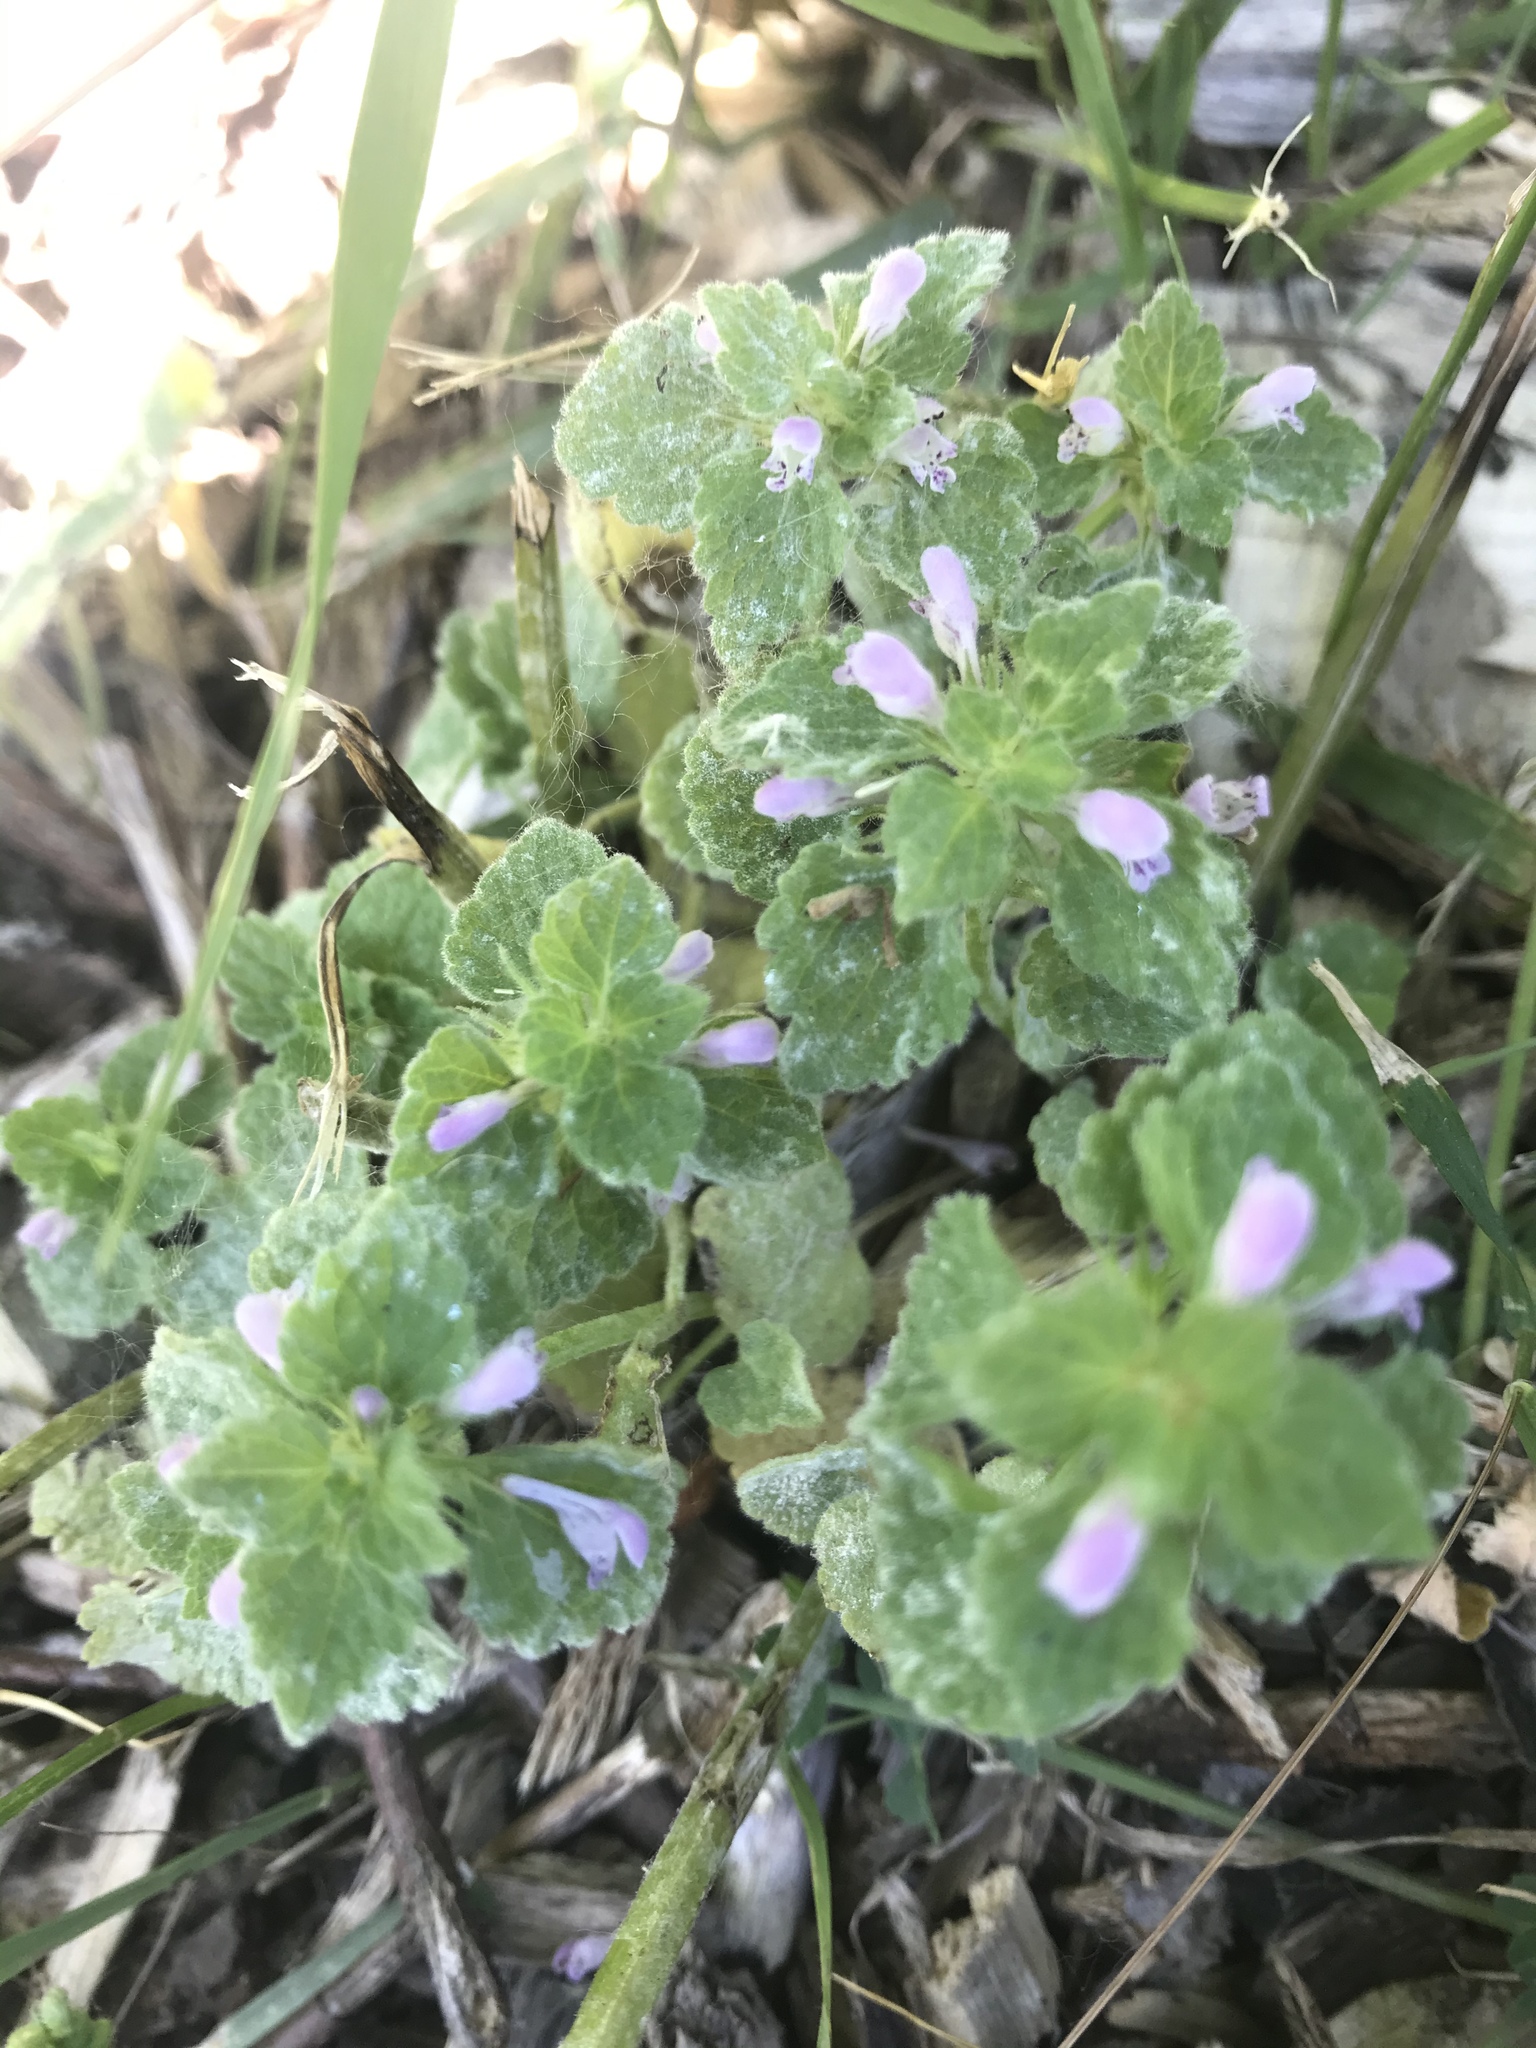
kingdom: Plantae
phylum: Tracheophyta
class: Magnoliopsida
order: Lamiales
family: Lamiaceae
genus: Lamium
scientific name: Lamium purpureum
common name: Red dead-nettle
